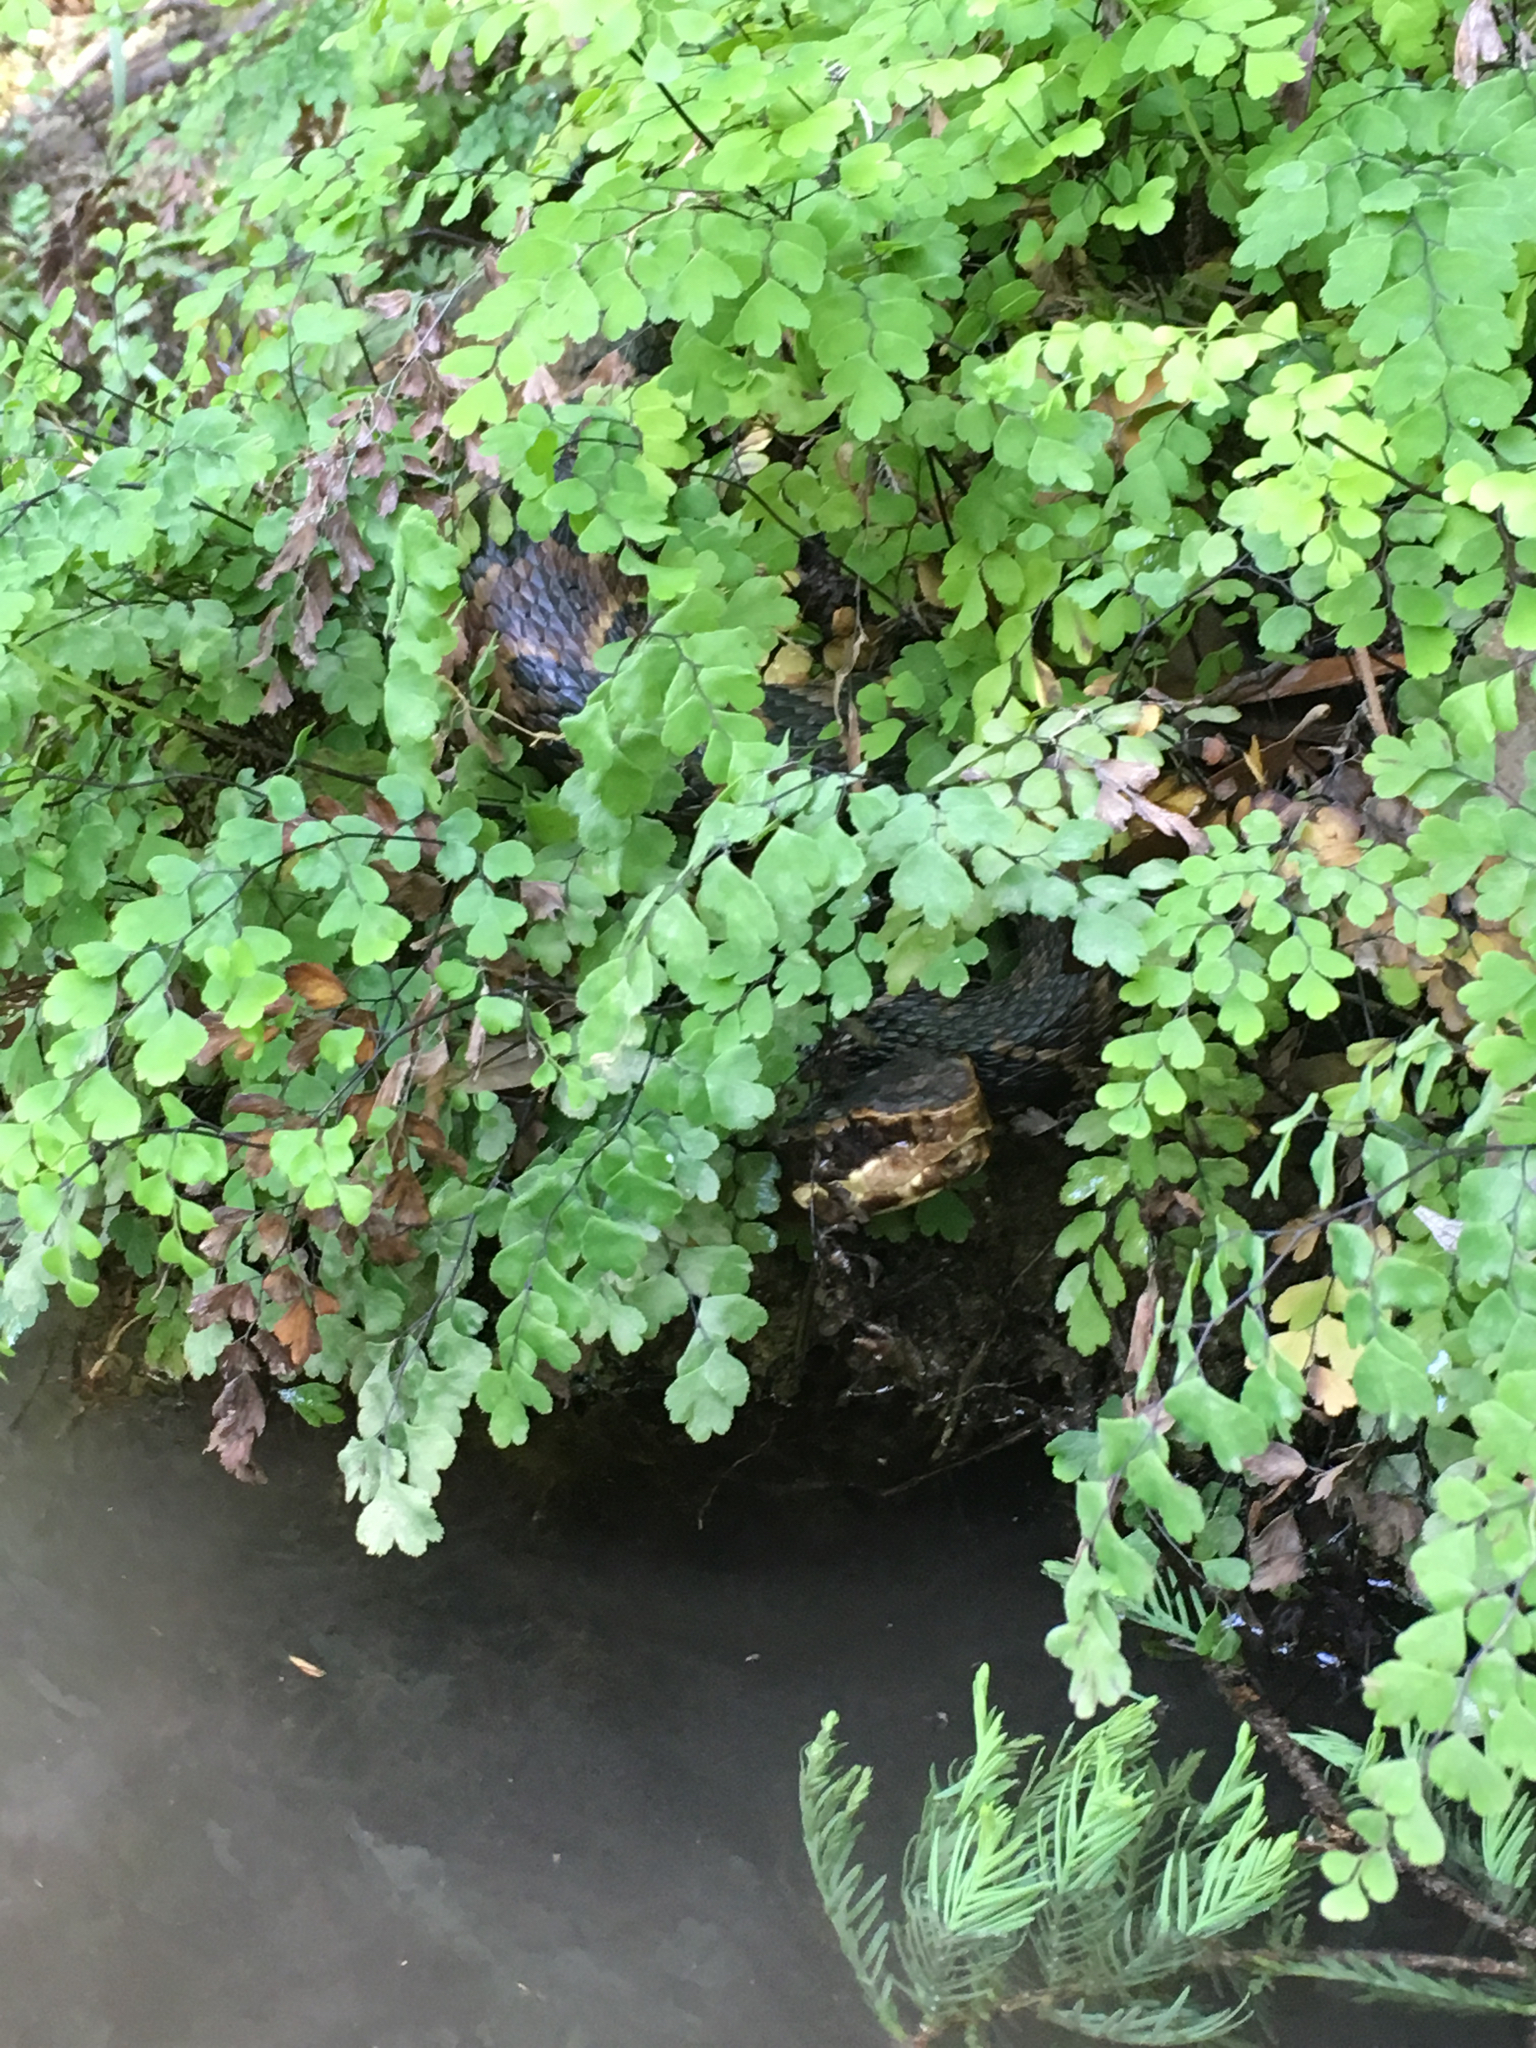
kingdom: Animalia
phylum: Chordata
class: Squamata
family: Viperidae
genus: Agkistrodon
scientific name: Agkistrodon piscivorus
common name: Cottonmouth
